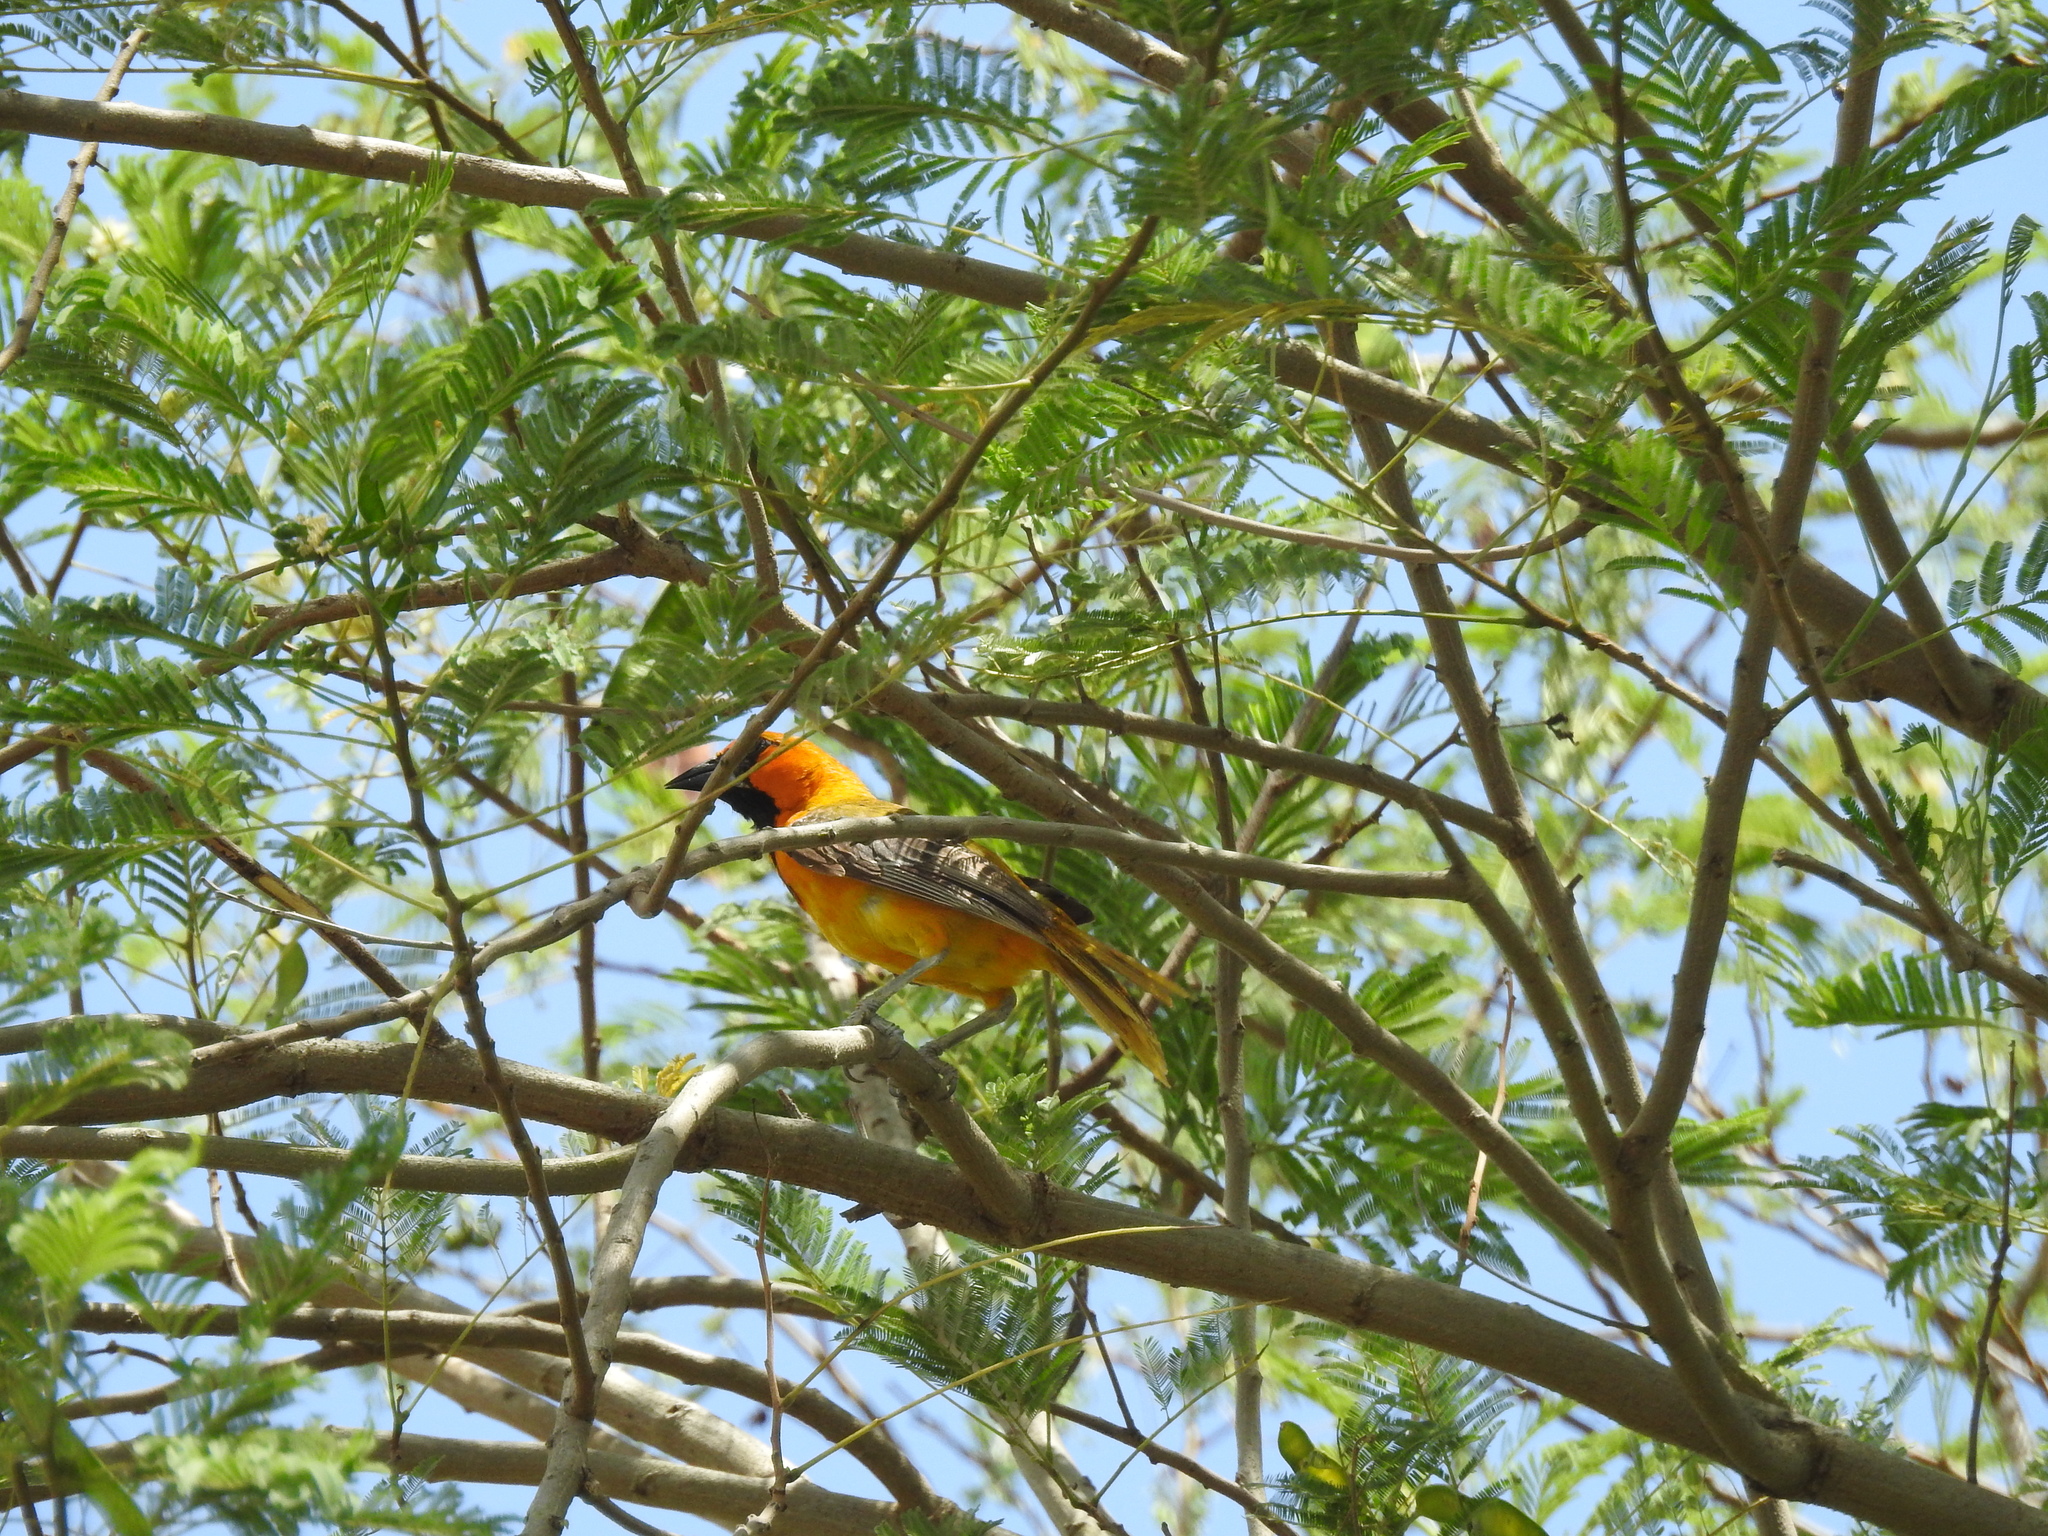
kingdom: Animalia
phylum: Chordata
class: Aves
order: Passeriformes
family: Icteridae
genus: Icterus
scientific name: Icterus gularis
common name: Altamira oriole
